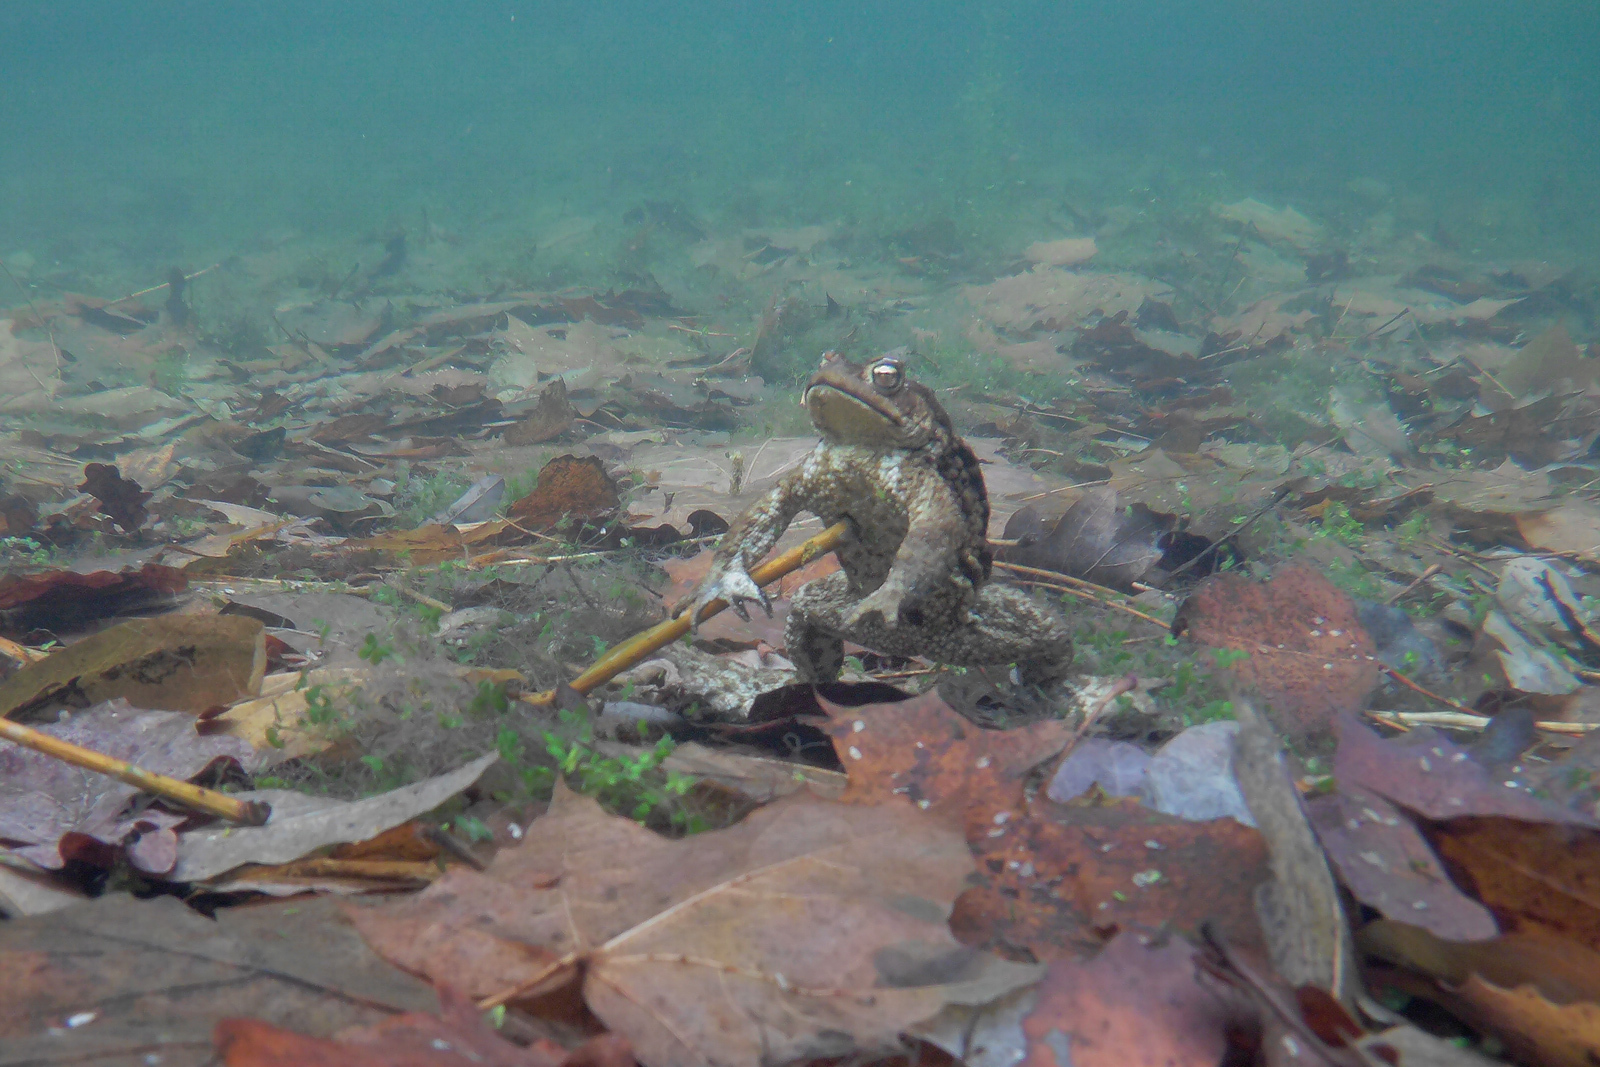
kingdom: Animalia
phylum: Chordata
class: Amphibia
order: Anura
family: Bufonidae
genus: Bufo
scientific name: Bufo bufo
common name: Common toad
